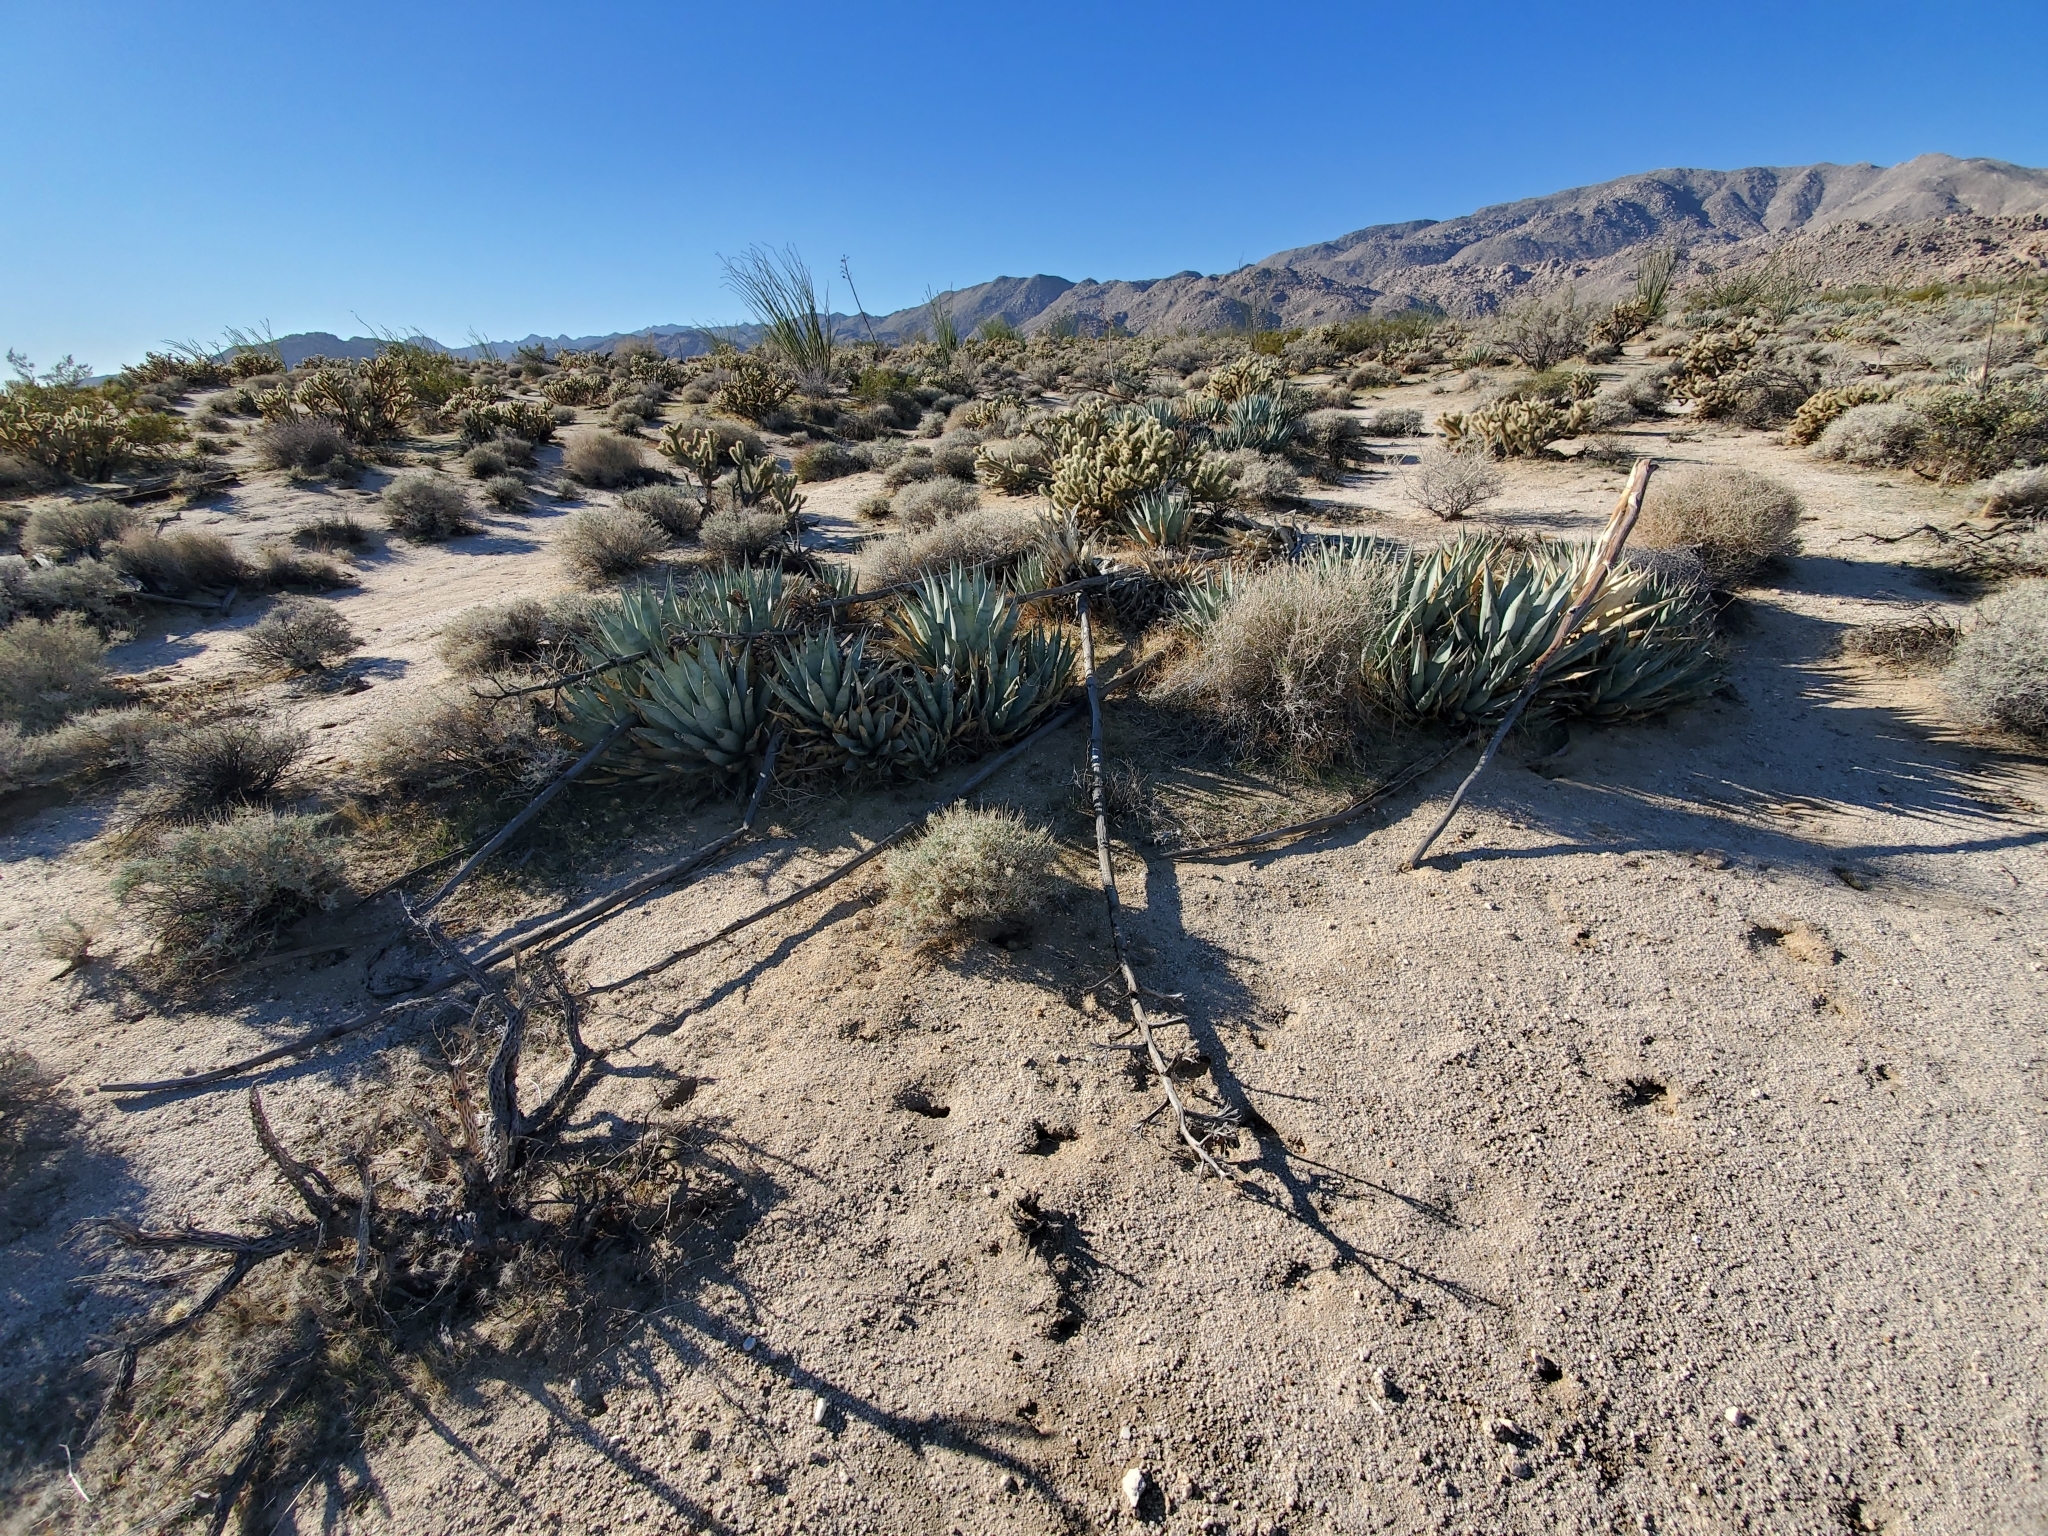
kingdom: Plantae
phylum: Tracheophyta
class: Liliopsida
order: Asparagales
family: Asparagaceae
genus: Agave
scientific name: Agave deserti
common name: Desert agave
